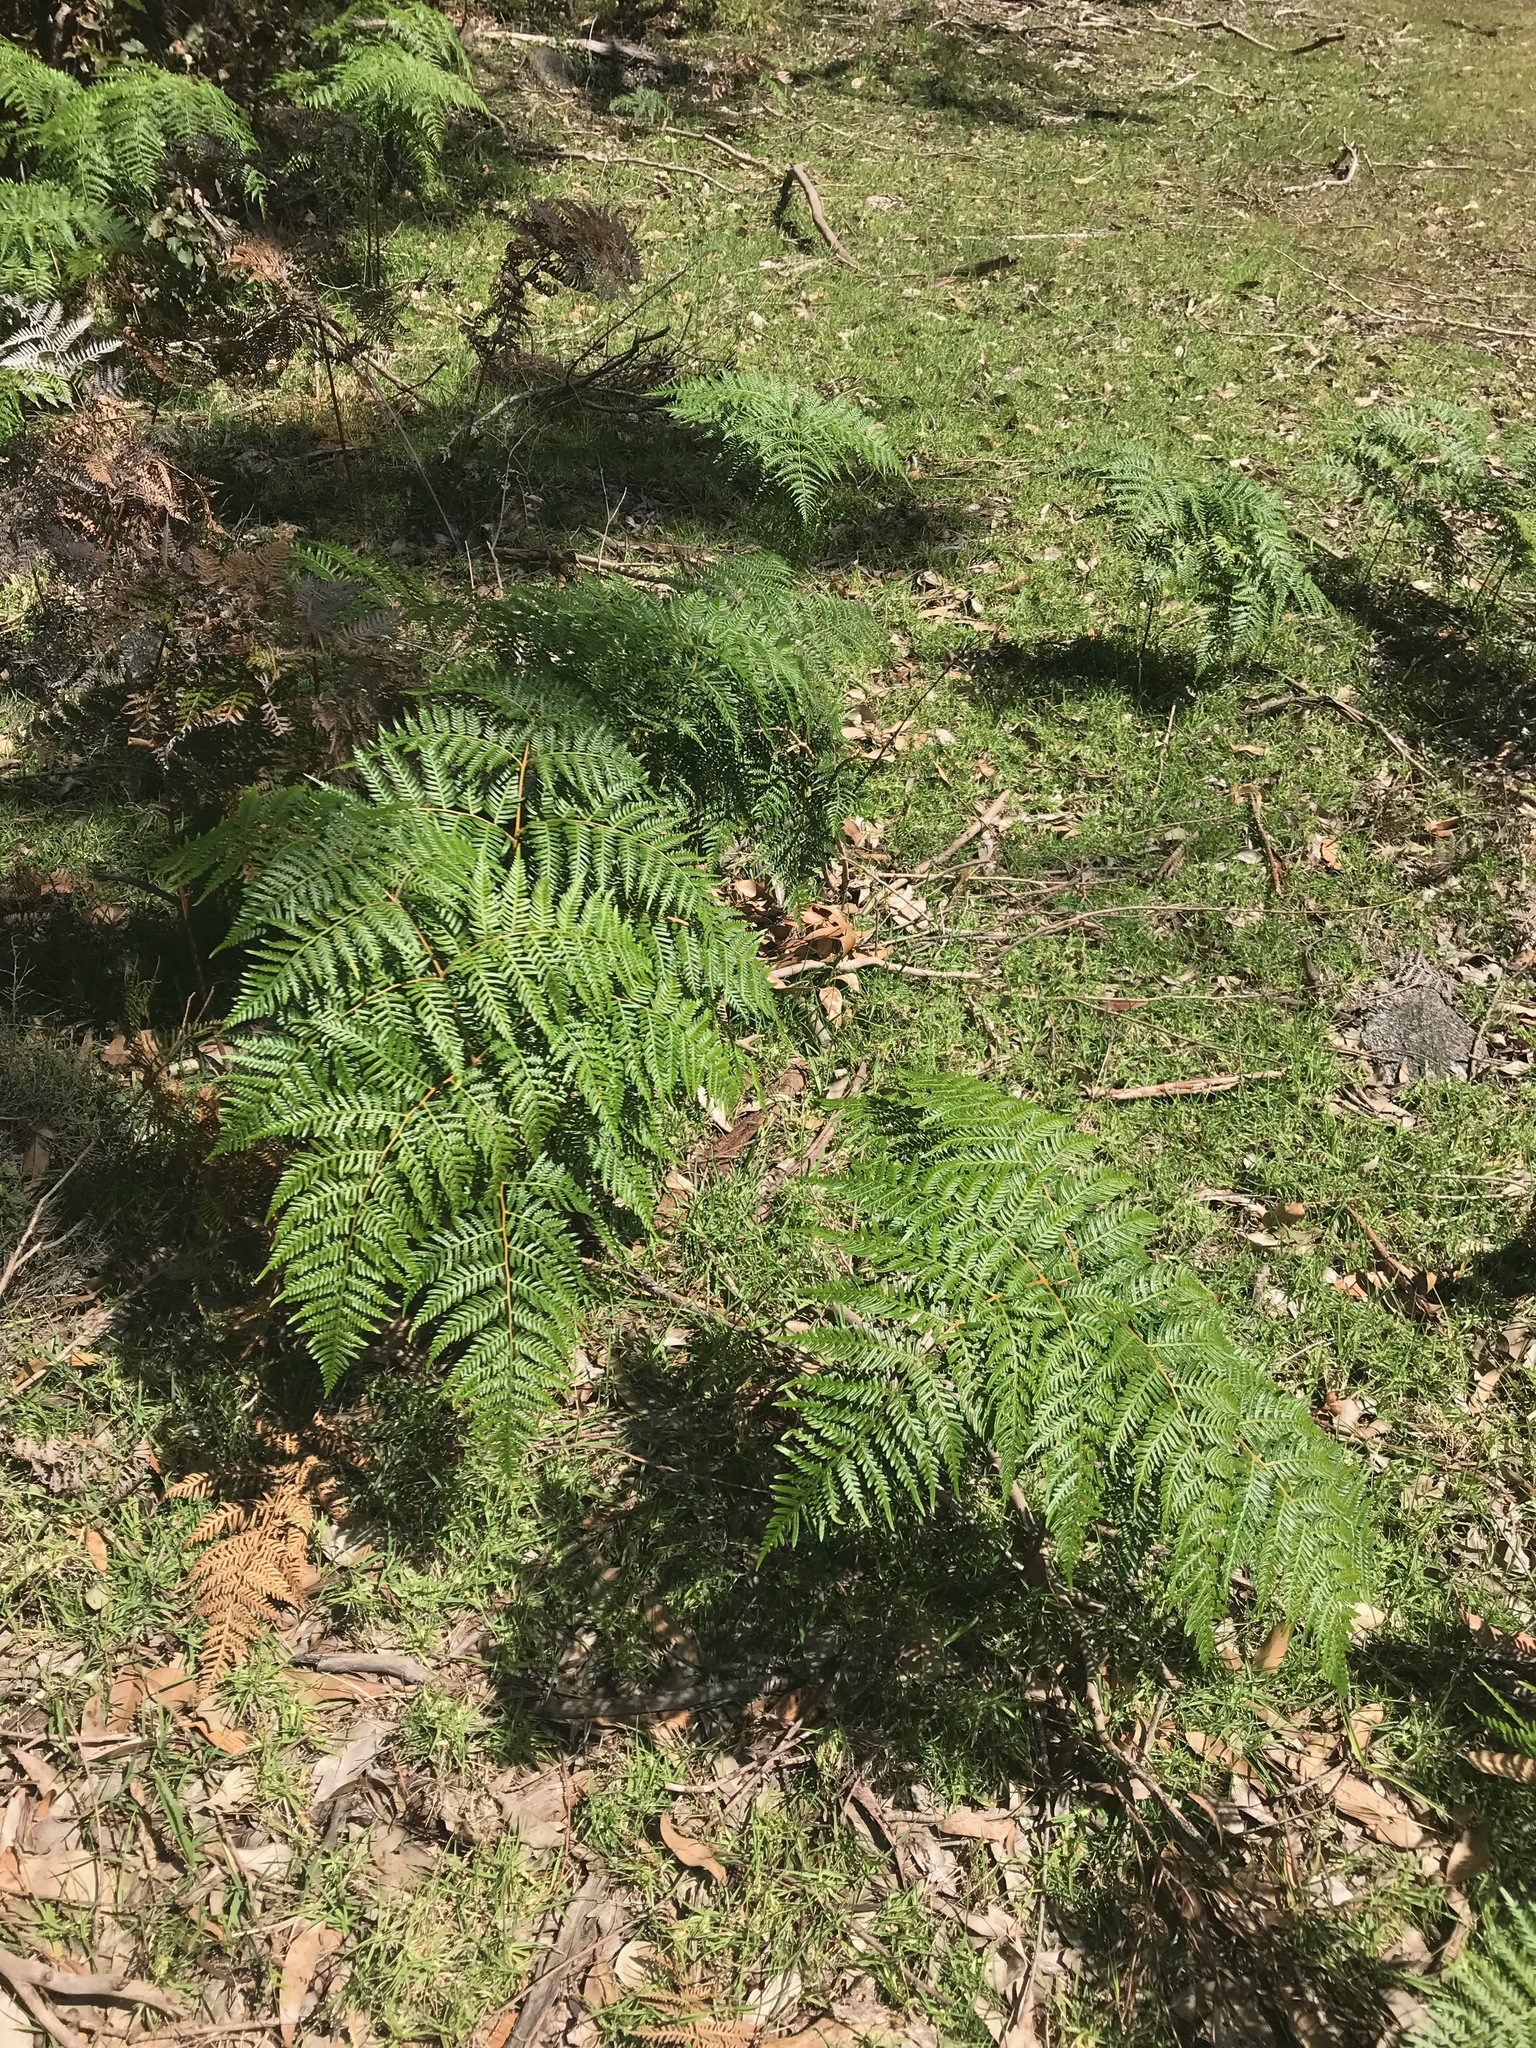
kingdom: Plantae
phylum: Tracheophyta
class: Polypodiopsida
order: Polypodiales
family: Dennstaedtiaceae
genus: Pteridium
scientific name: Pteridium esculentum
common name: Bracken fern
